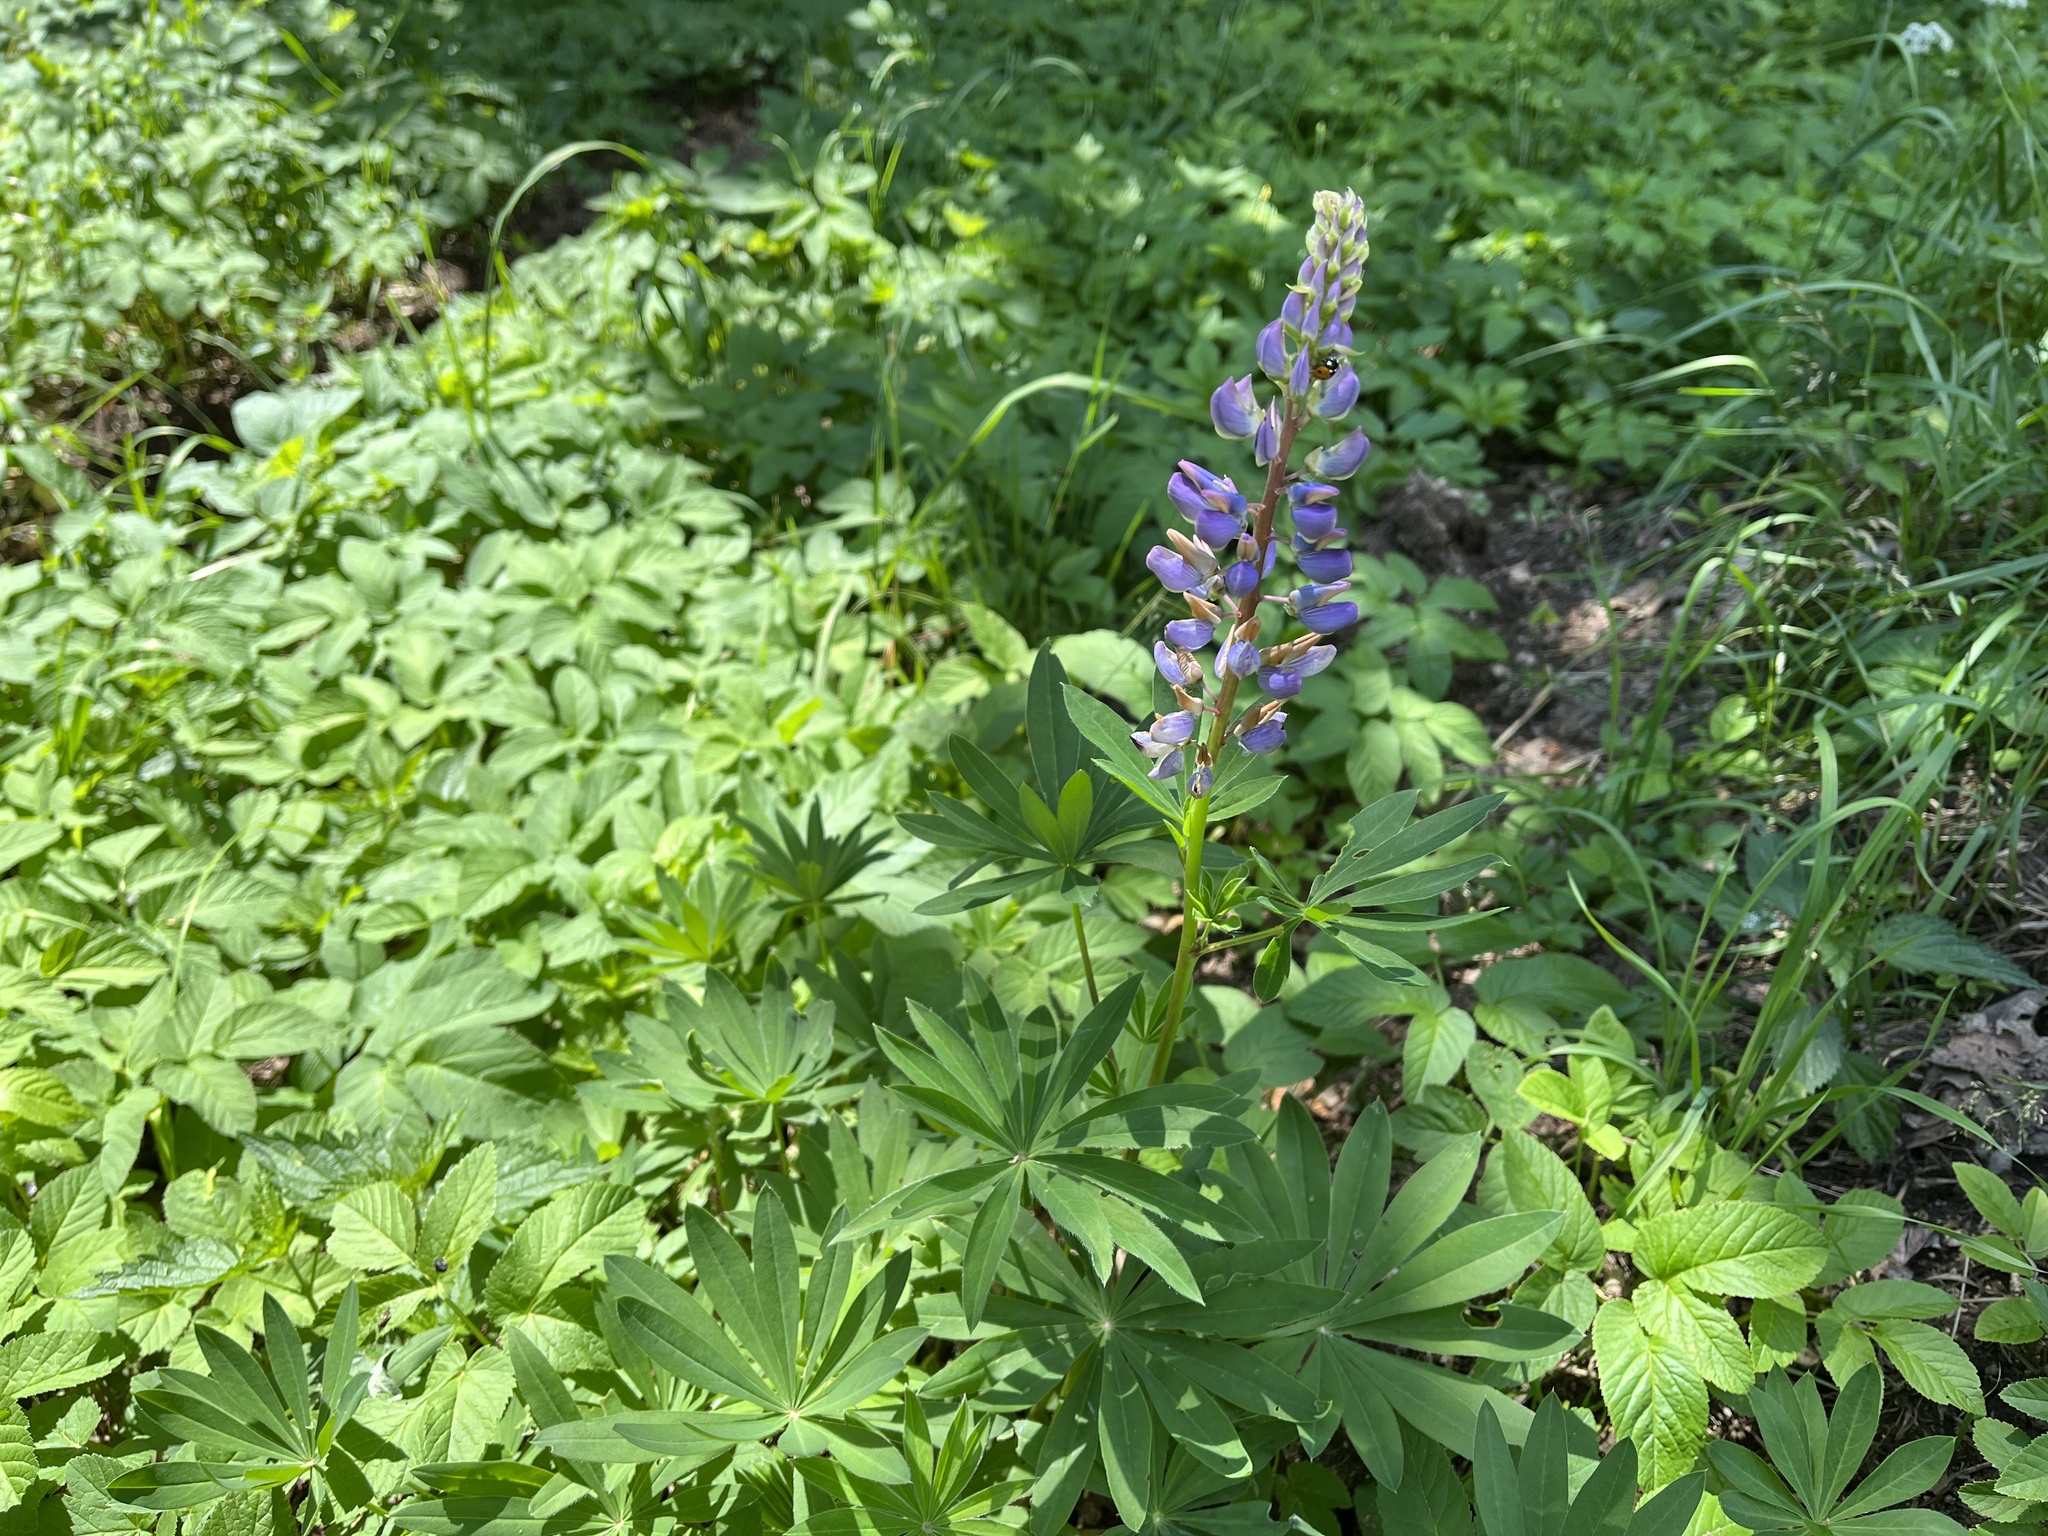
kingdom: Plantae
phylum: Tracheophyta
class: Magnoliopsida
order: Fabales
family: Fabaceae
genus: Lupinus
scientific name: Lupinus polyphyllus
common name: Garden lupin
